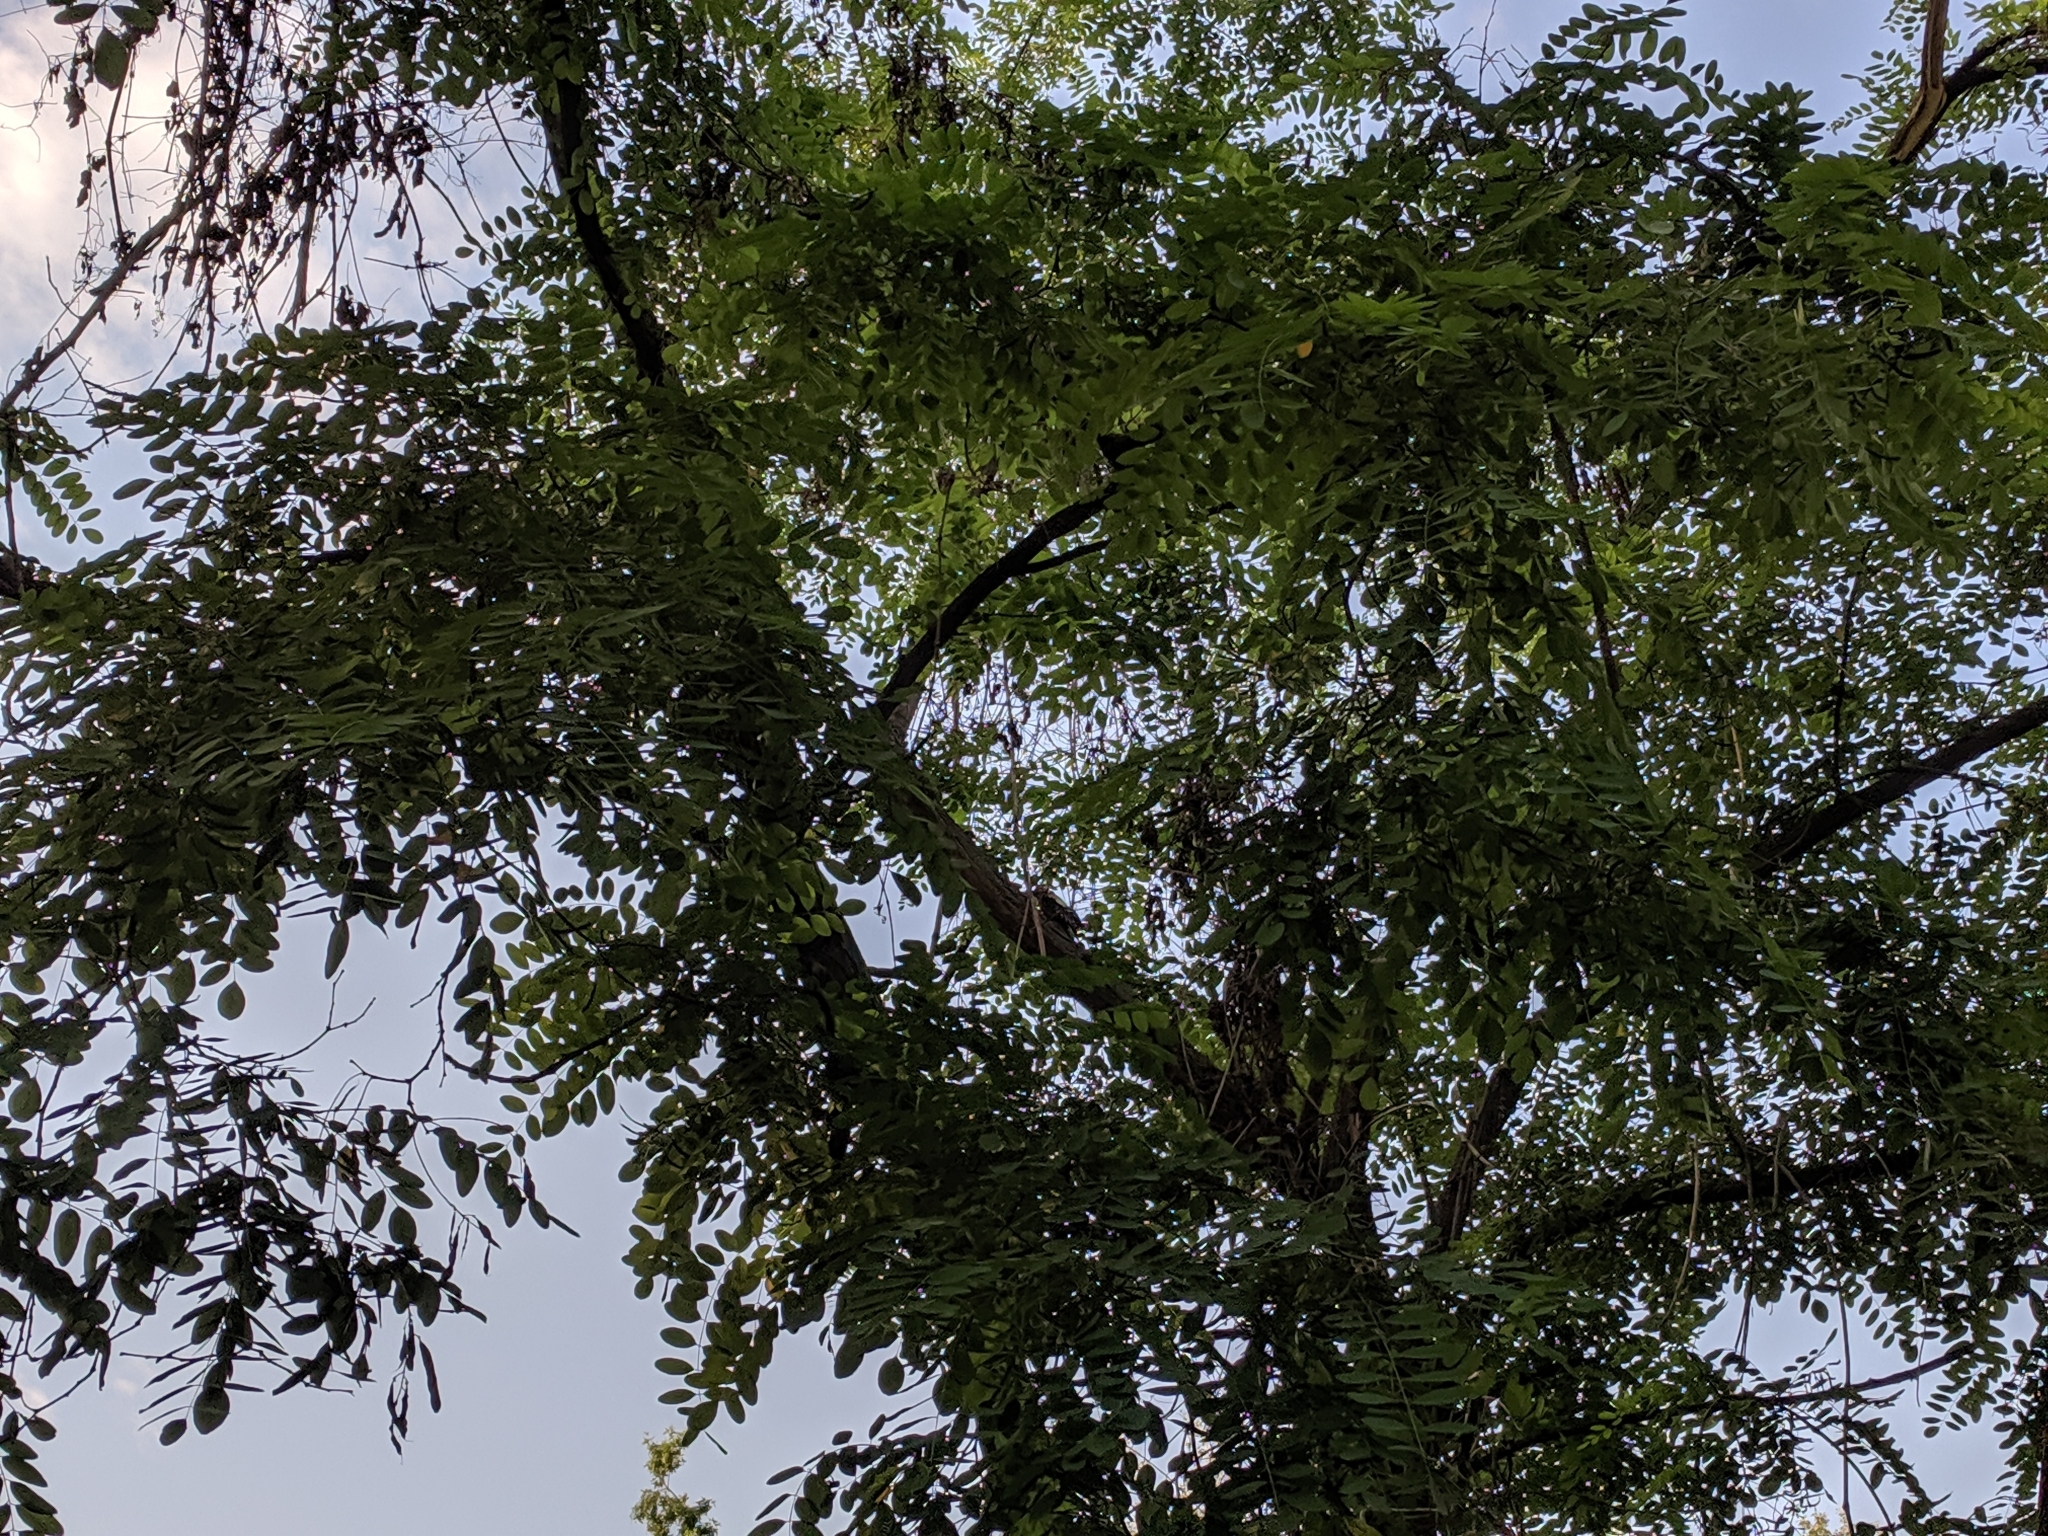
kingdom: Animalia
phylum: Chordata
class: Aves
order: Piciformes
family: Picidae
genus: Dendrocopos
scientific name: Dendrocopos major
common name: Great spotted woodpecker
